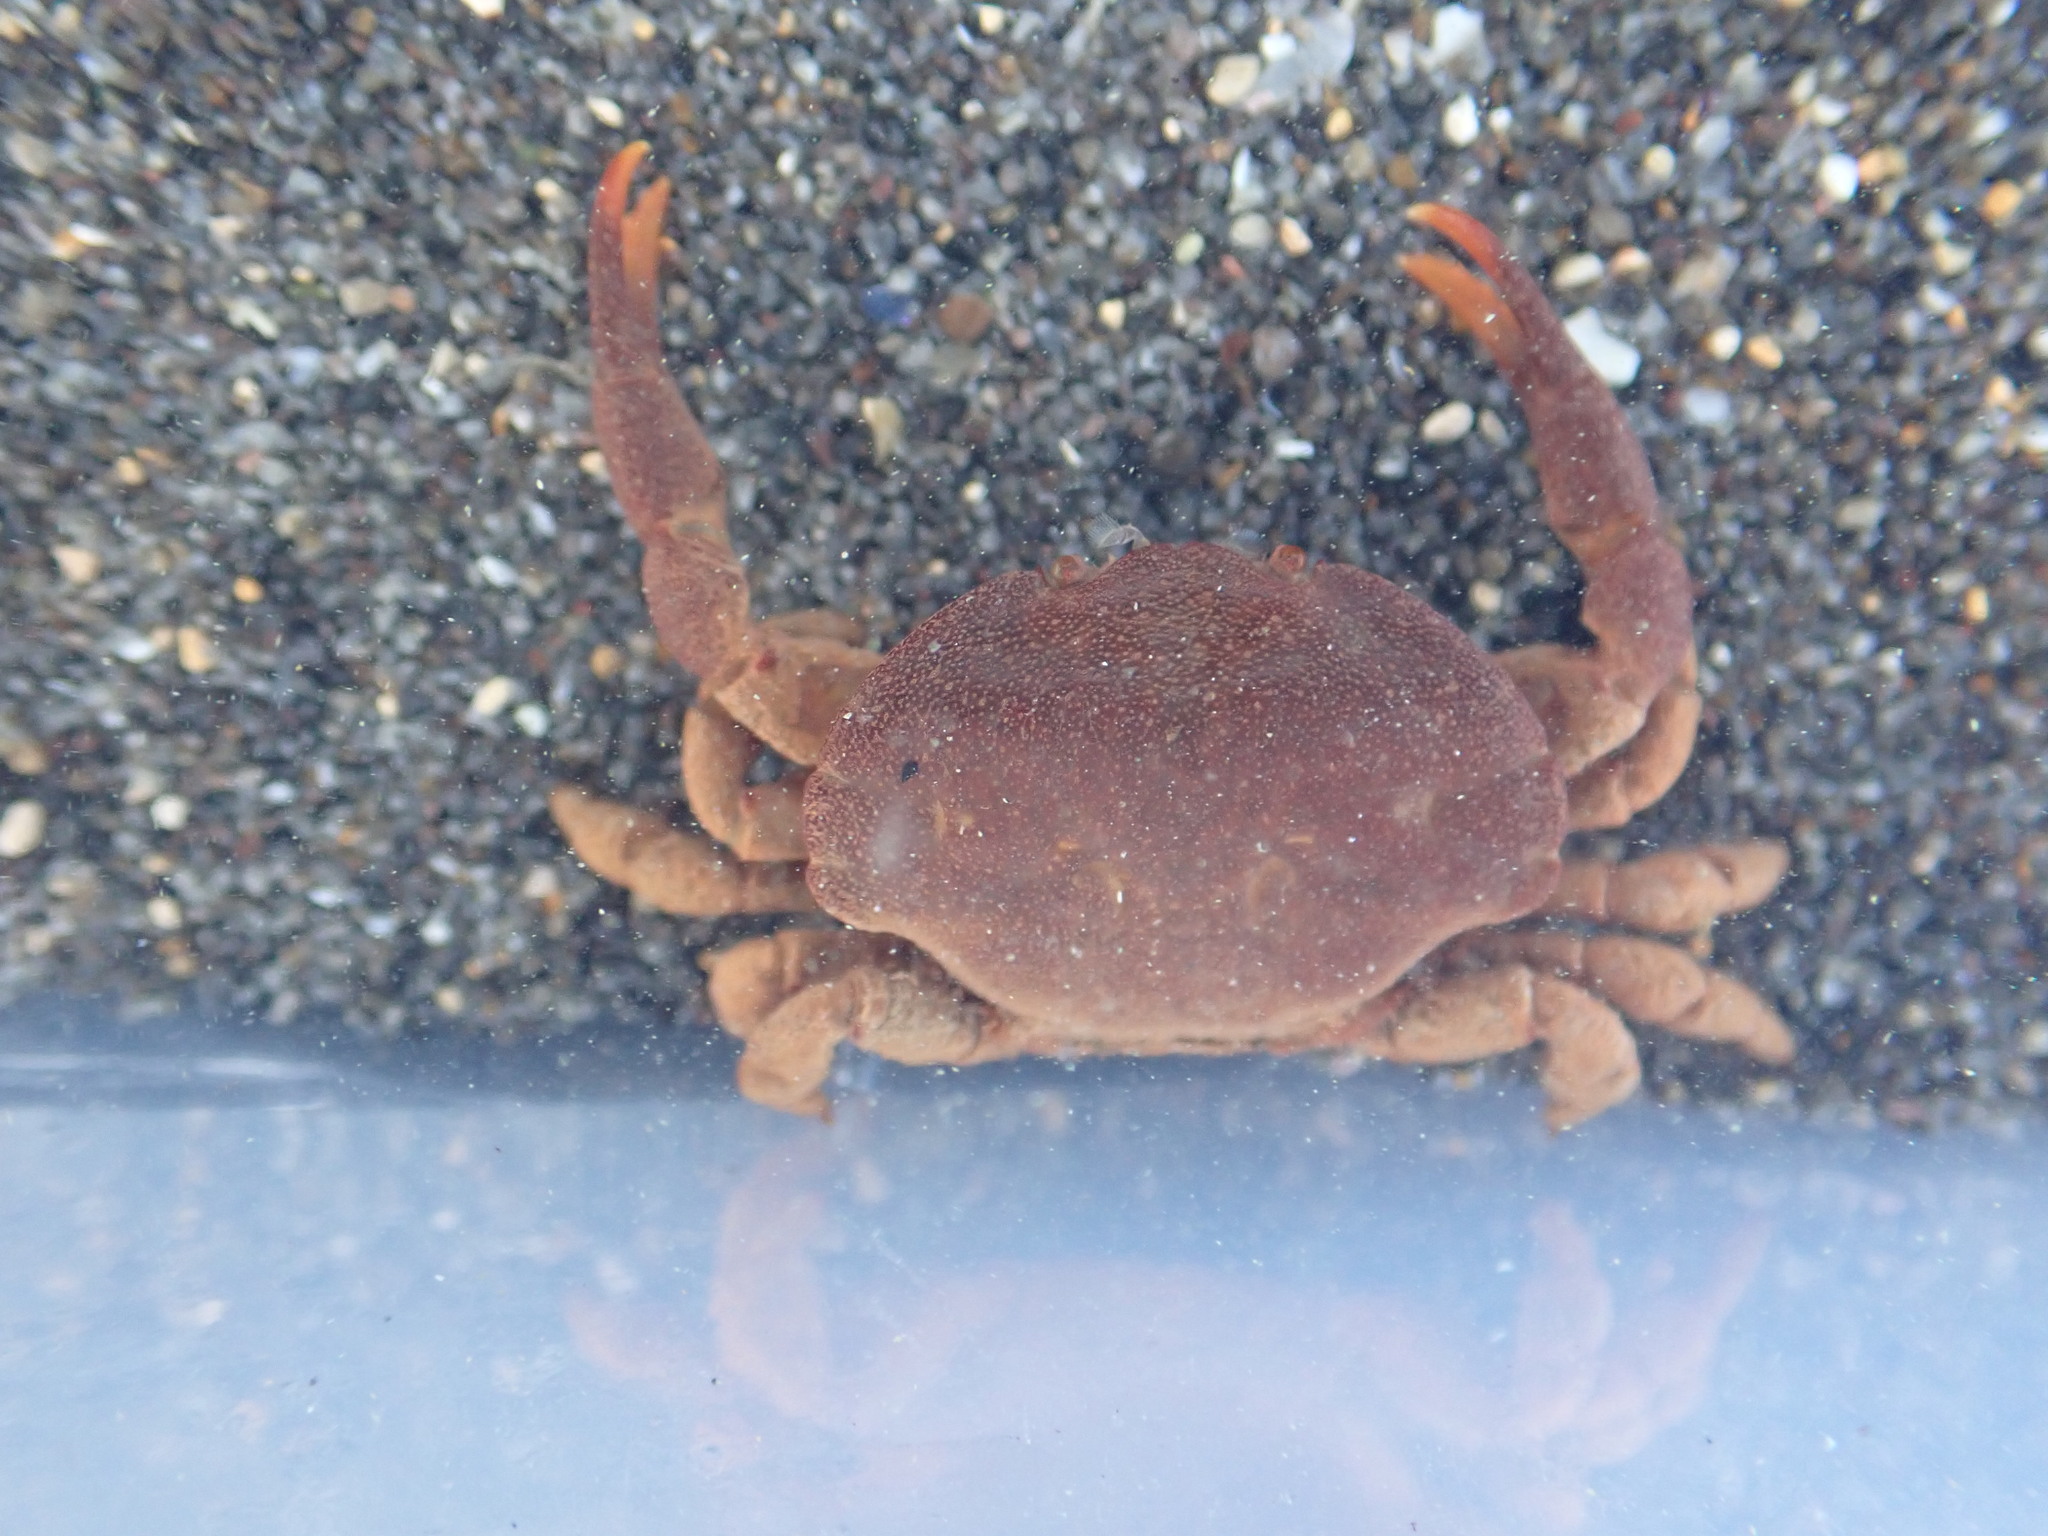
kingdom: Animalia
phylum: Arthropoda
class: Malacostraca
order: Decapoda
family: Heteroziidae
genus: Heterozius
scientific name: Heterozius rotundifrons
